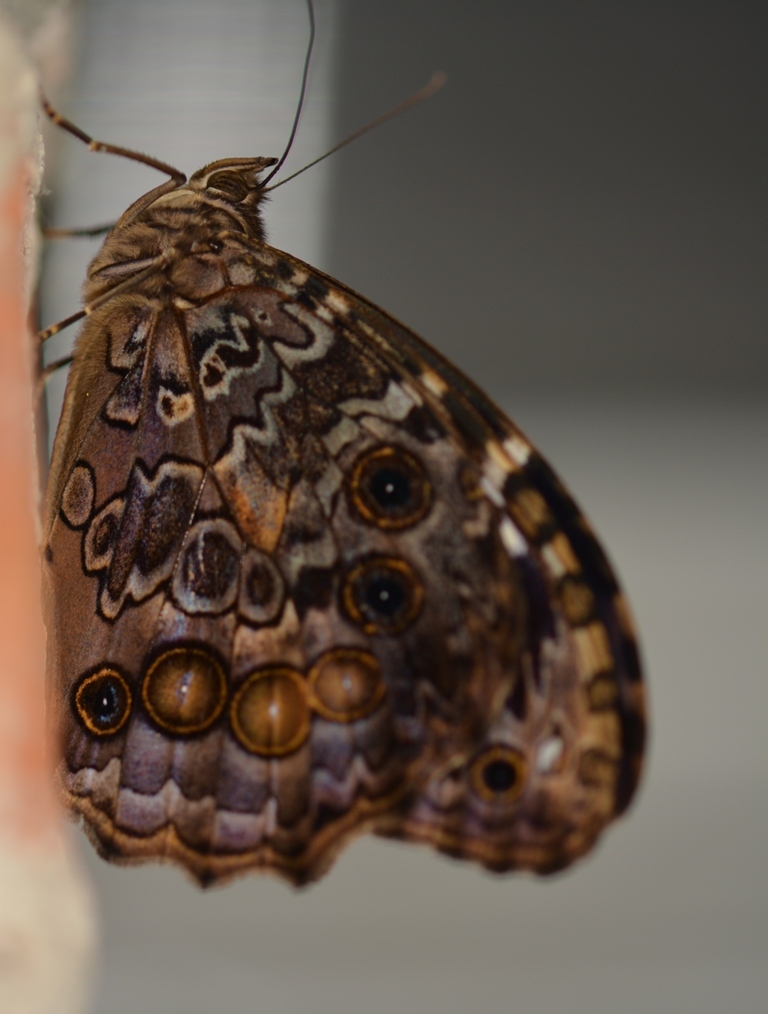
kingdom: Animalia
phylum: Arthropoda
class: Insecta
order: Lepidoptera
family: Nymphalidae
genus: Manataria
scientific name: Manataria maculata
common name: White-spotted satyr
